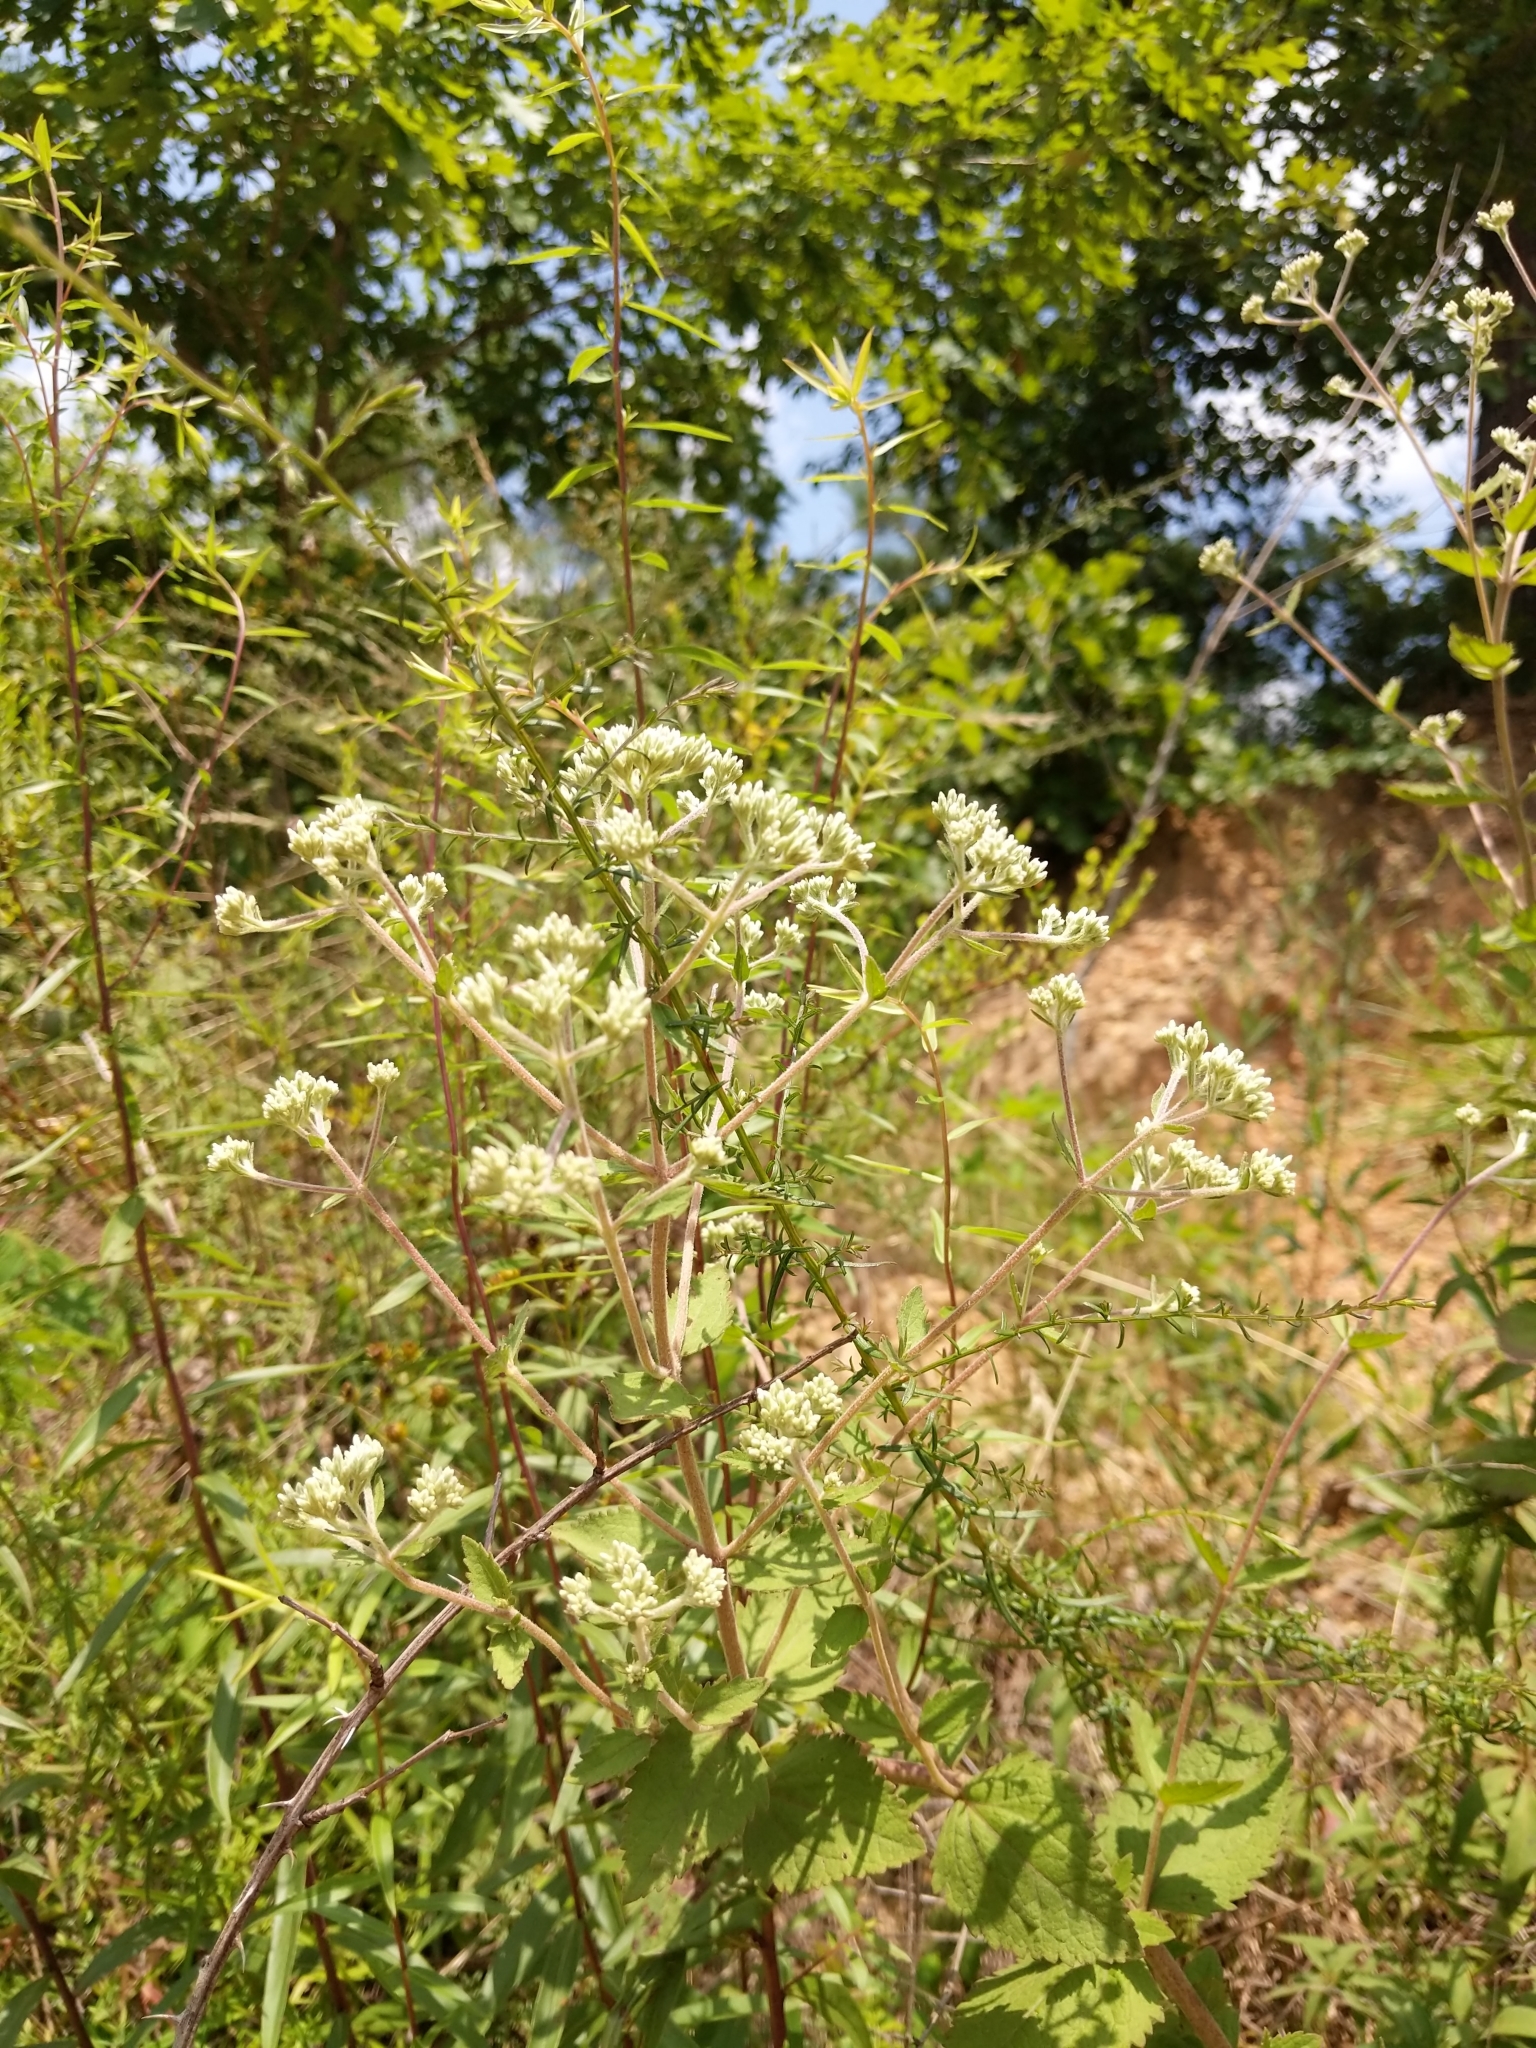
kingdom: Plantae
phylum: Tracheophyta
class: Magnoliopsida
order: Asterales
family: Asteraceae
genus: Eupatorium
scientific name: Eupatorium rotundifolium
